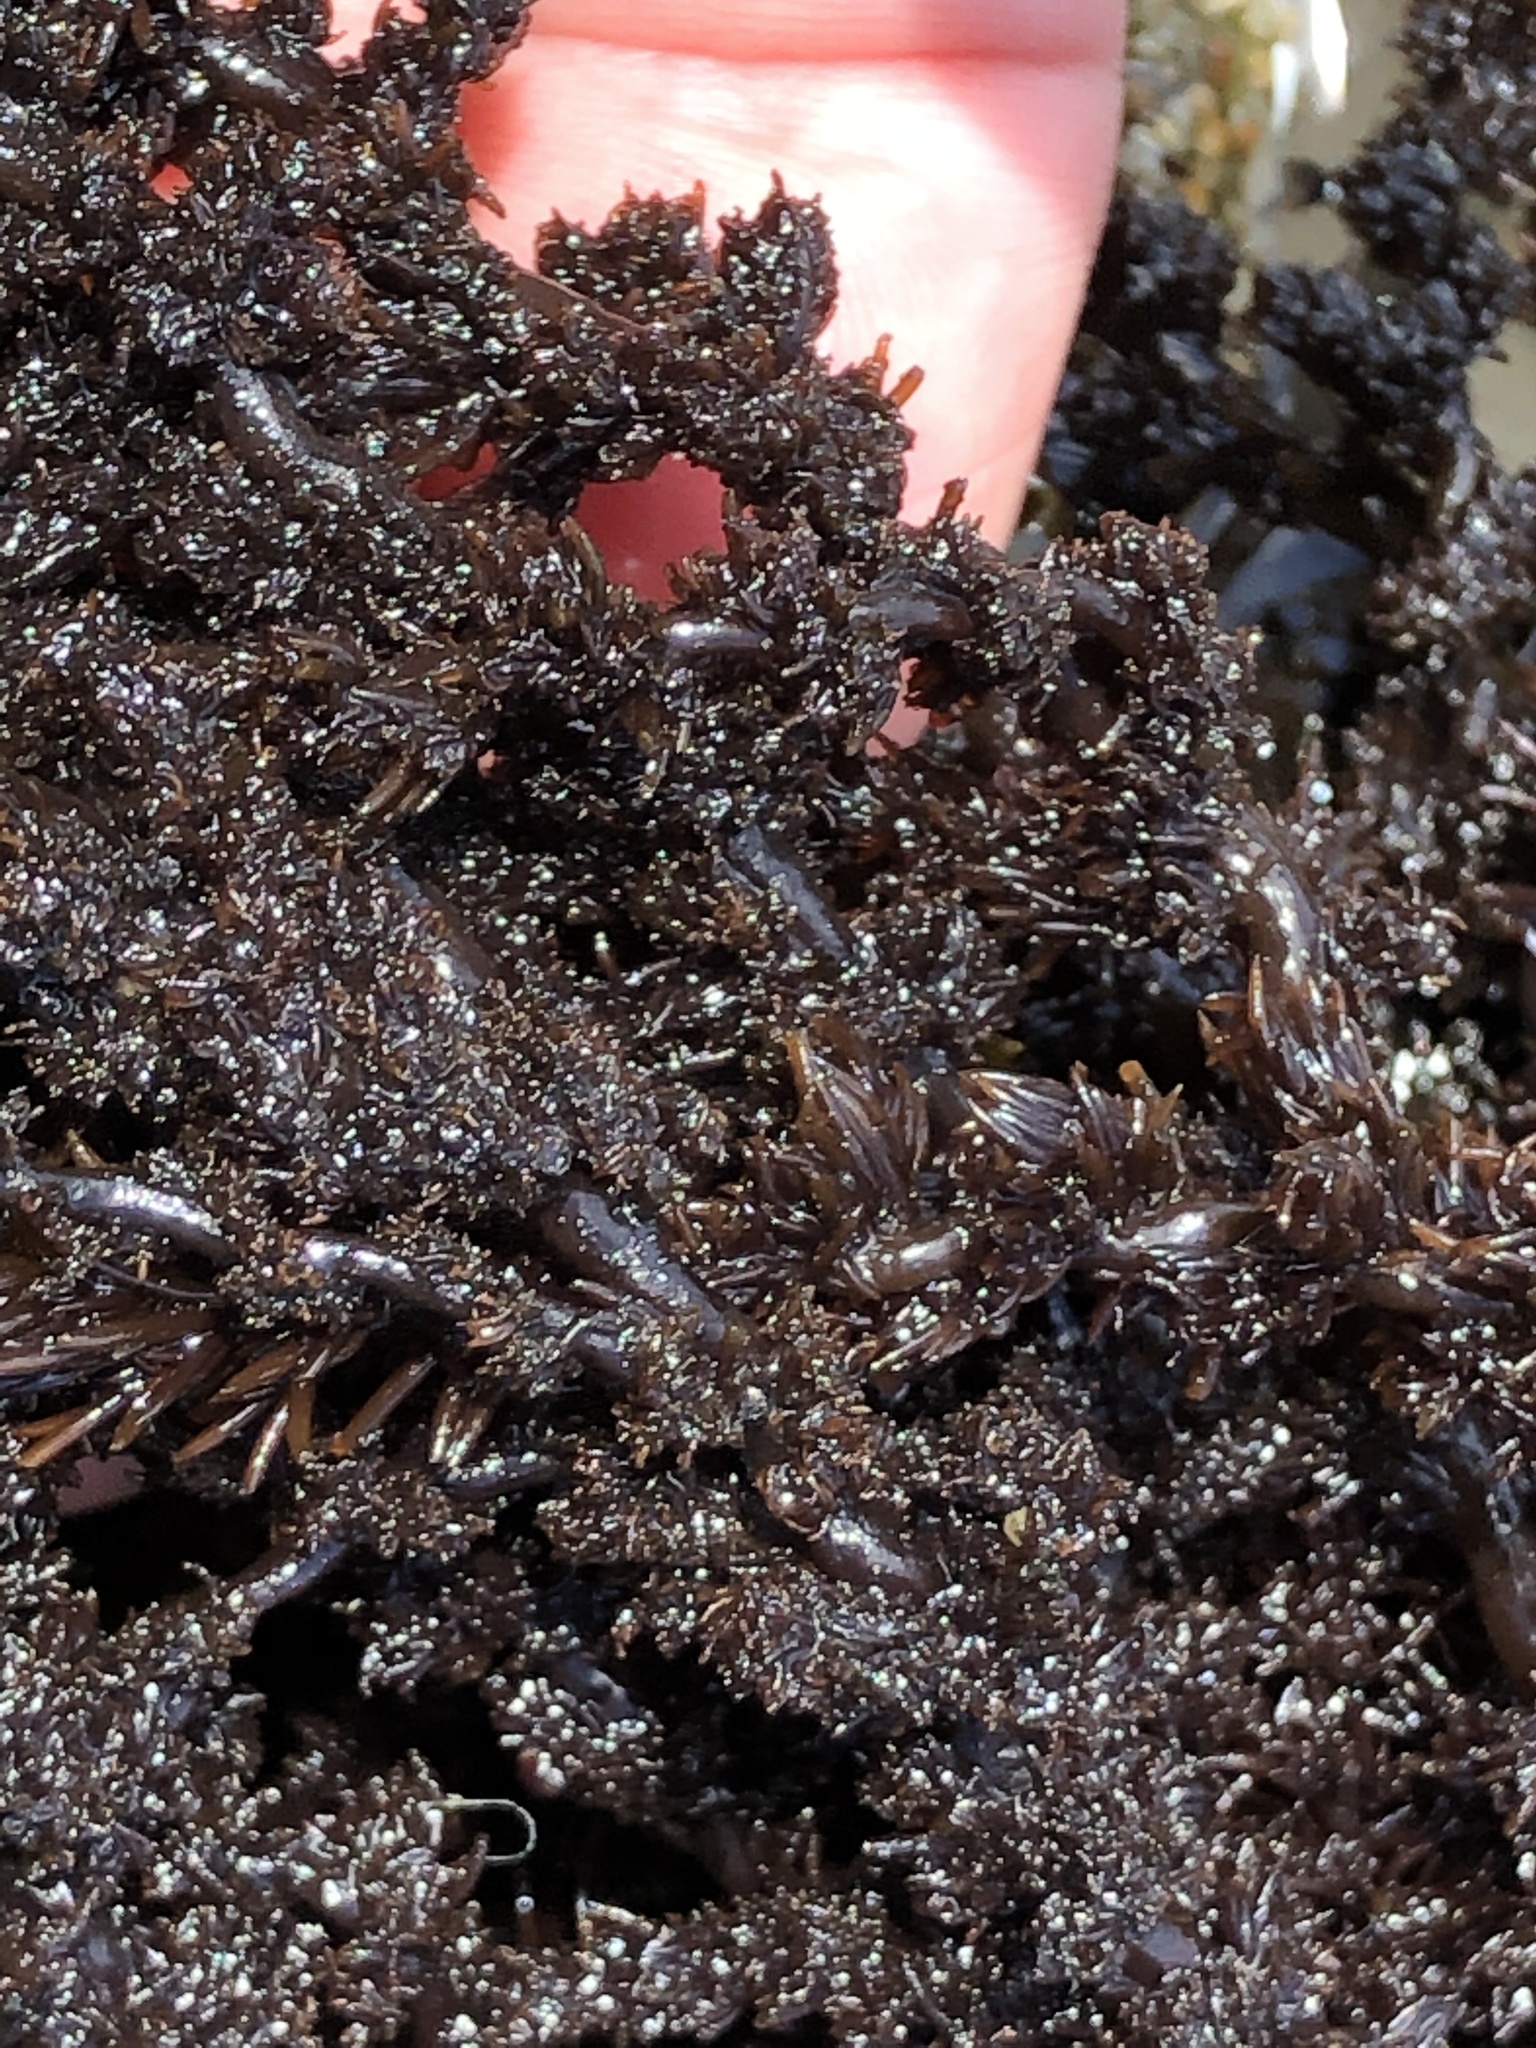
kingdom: Plantae
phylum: Rhodophyta
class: Florideophyceae
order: Ceramiales
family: Rhodomelaceae
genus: Neorhodomela
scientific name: Neorhodomela larix
